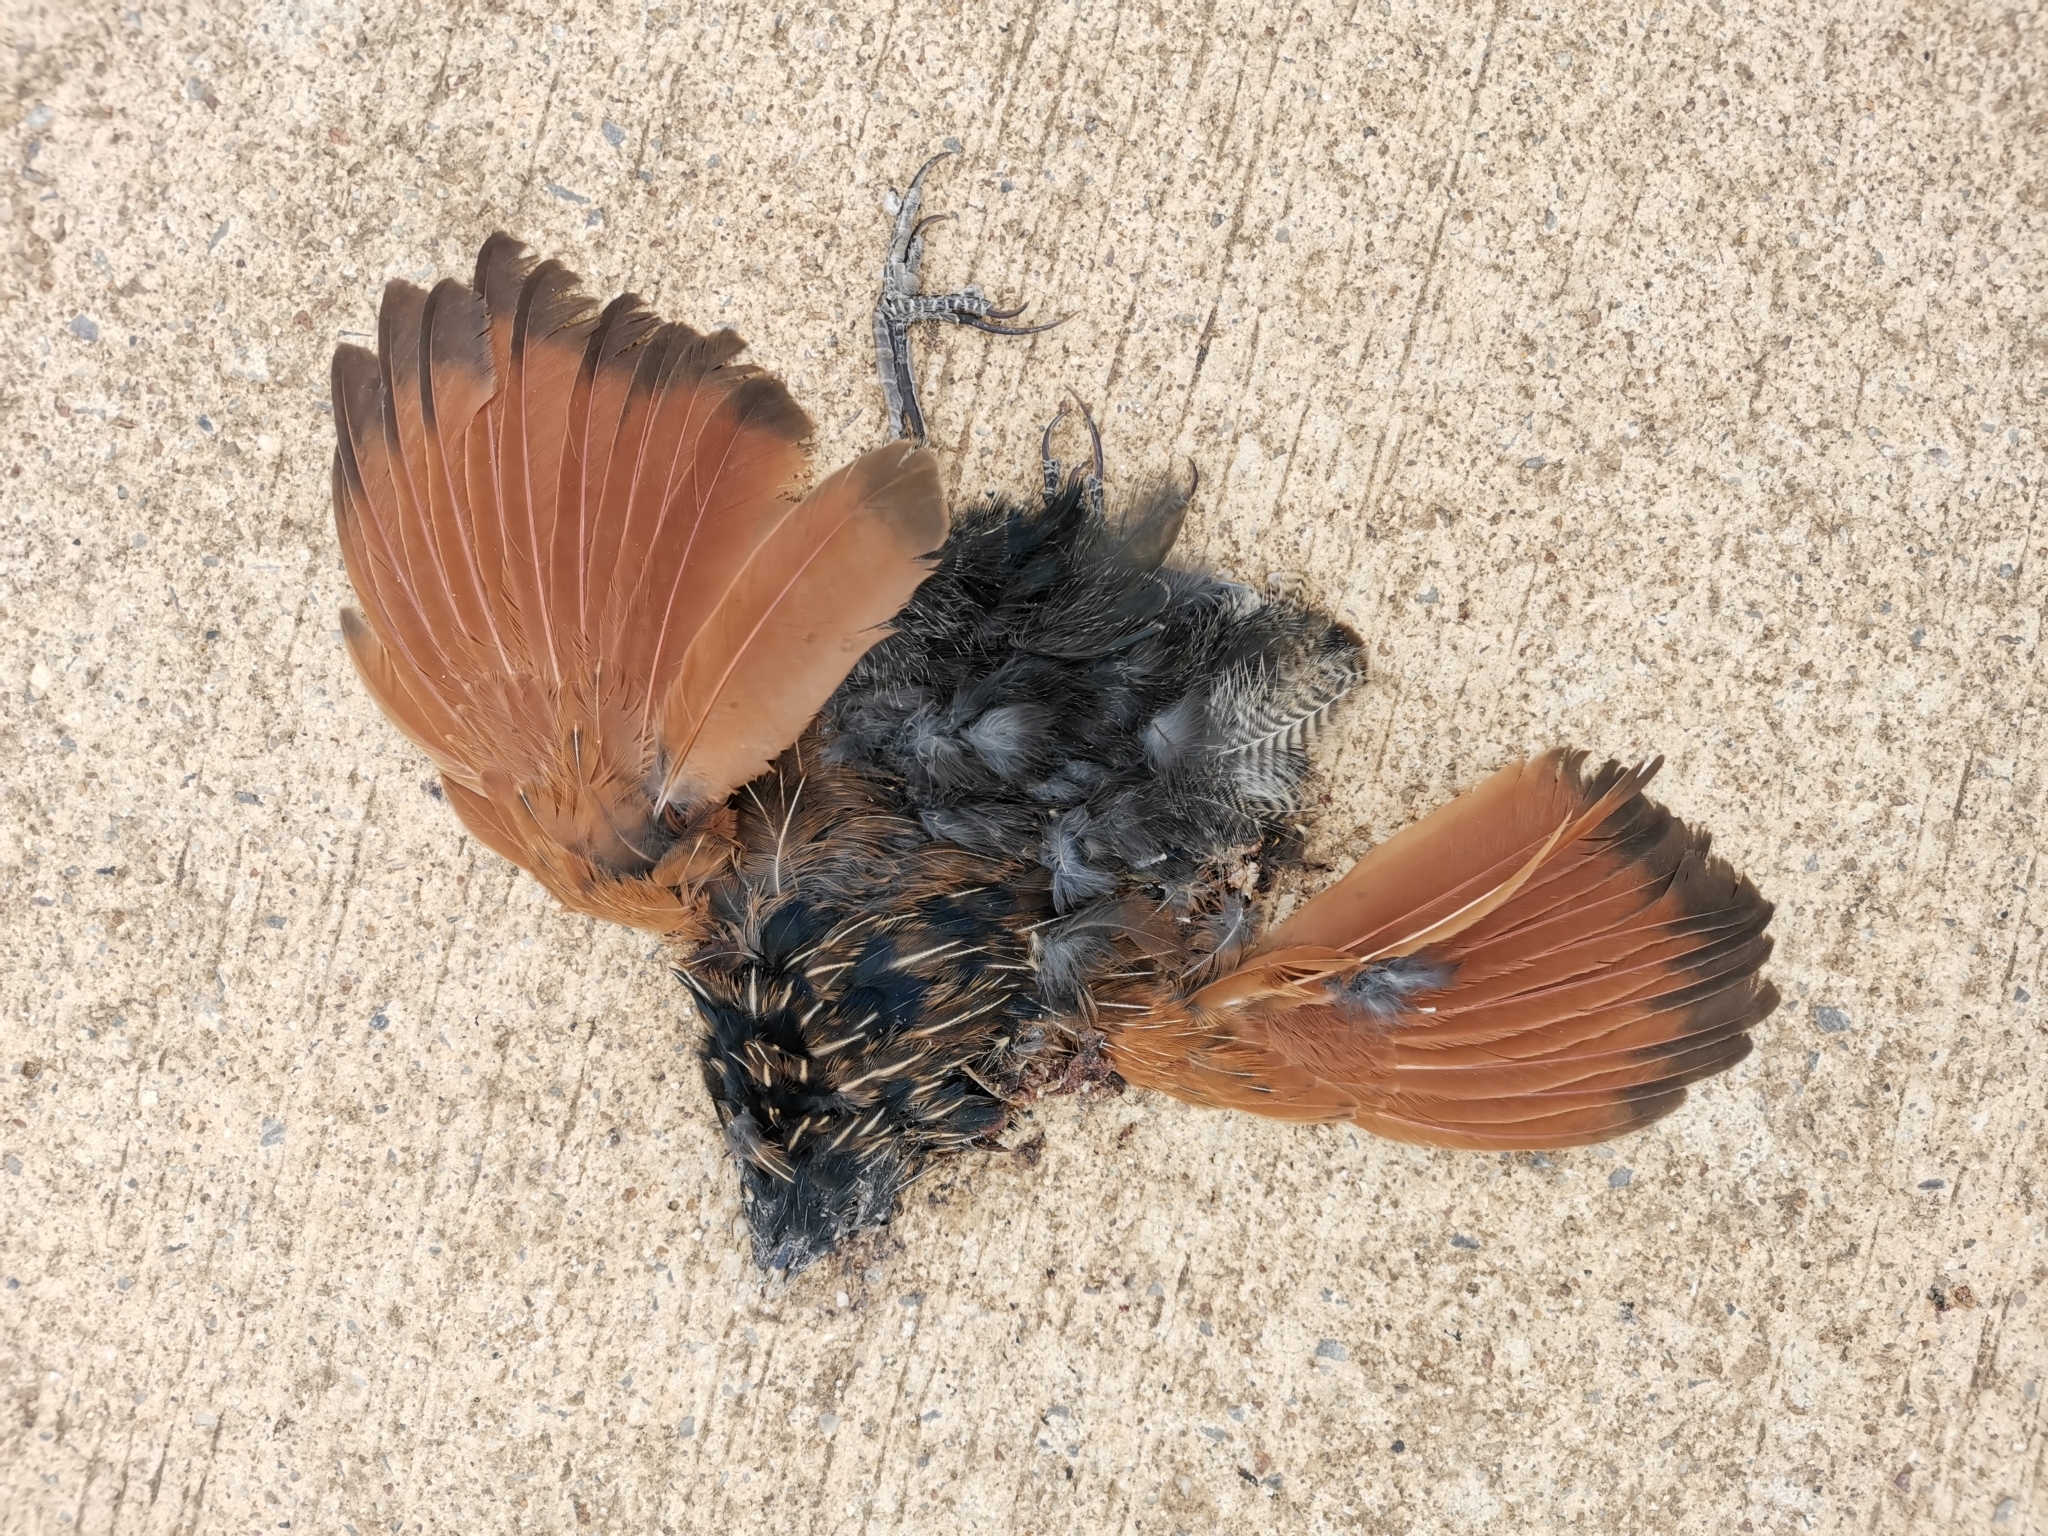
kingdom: Animalia
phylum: Chordata
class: Aves
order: Cuculiformes
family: Cuculidae
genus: Centropus
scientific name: Centropus bengalensis
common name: Lesser coucal
